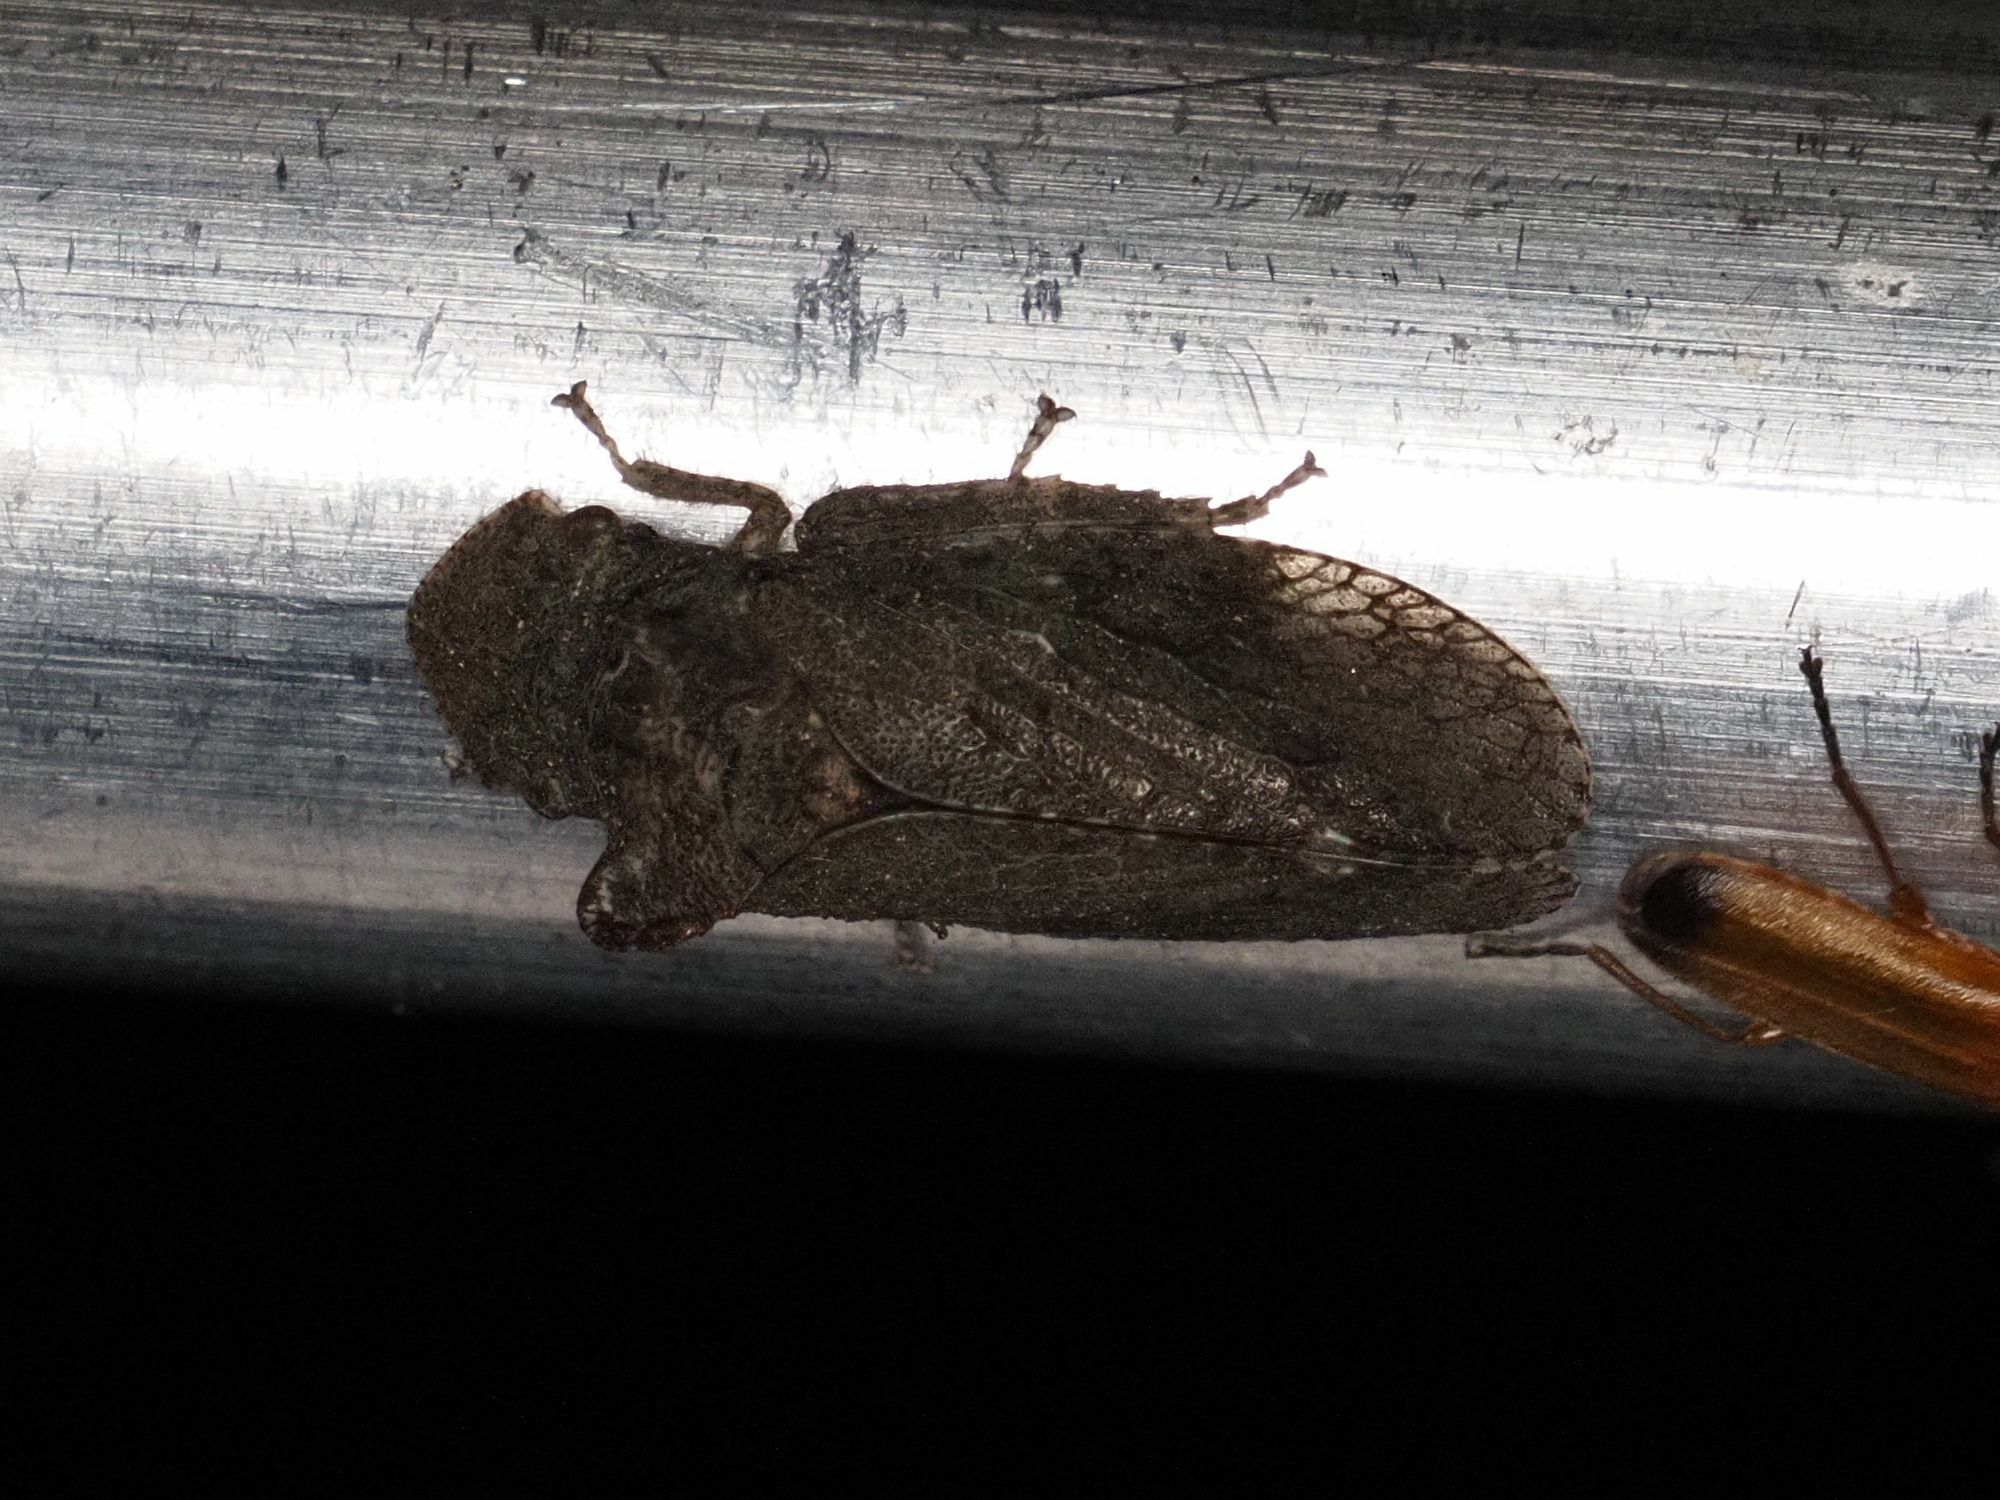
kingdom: Animalia
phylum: Arthropoda
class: Insecta
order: Hemiptera
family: Cicadellidae
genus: Ledra
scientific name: Ledra aurita
